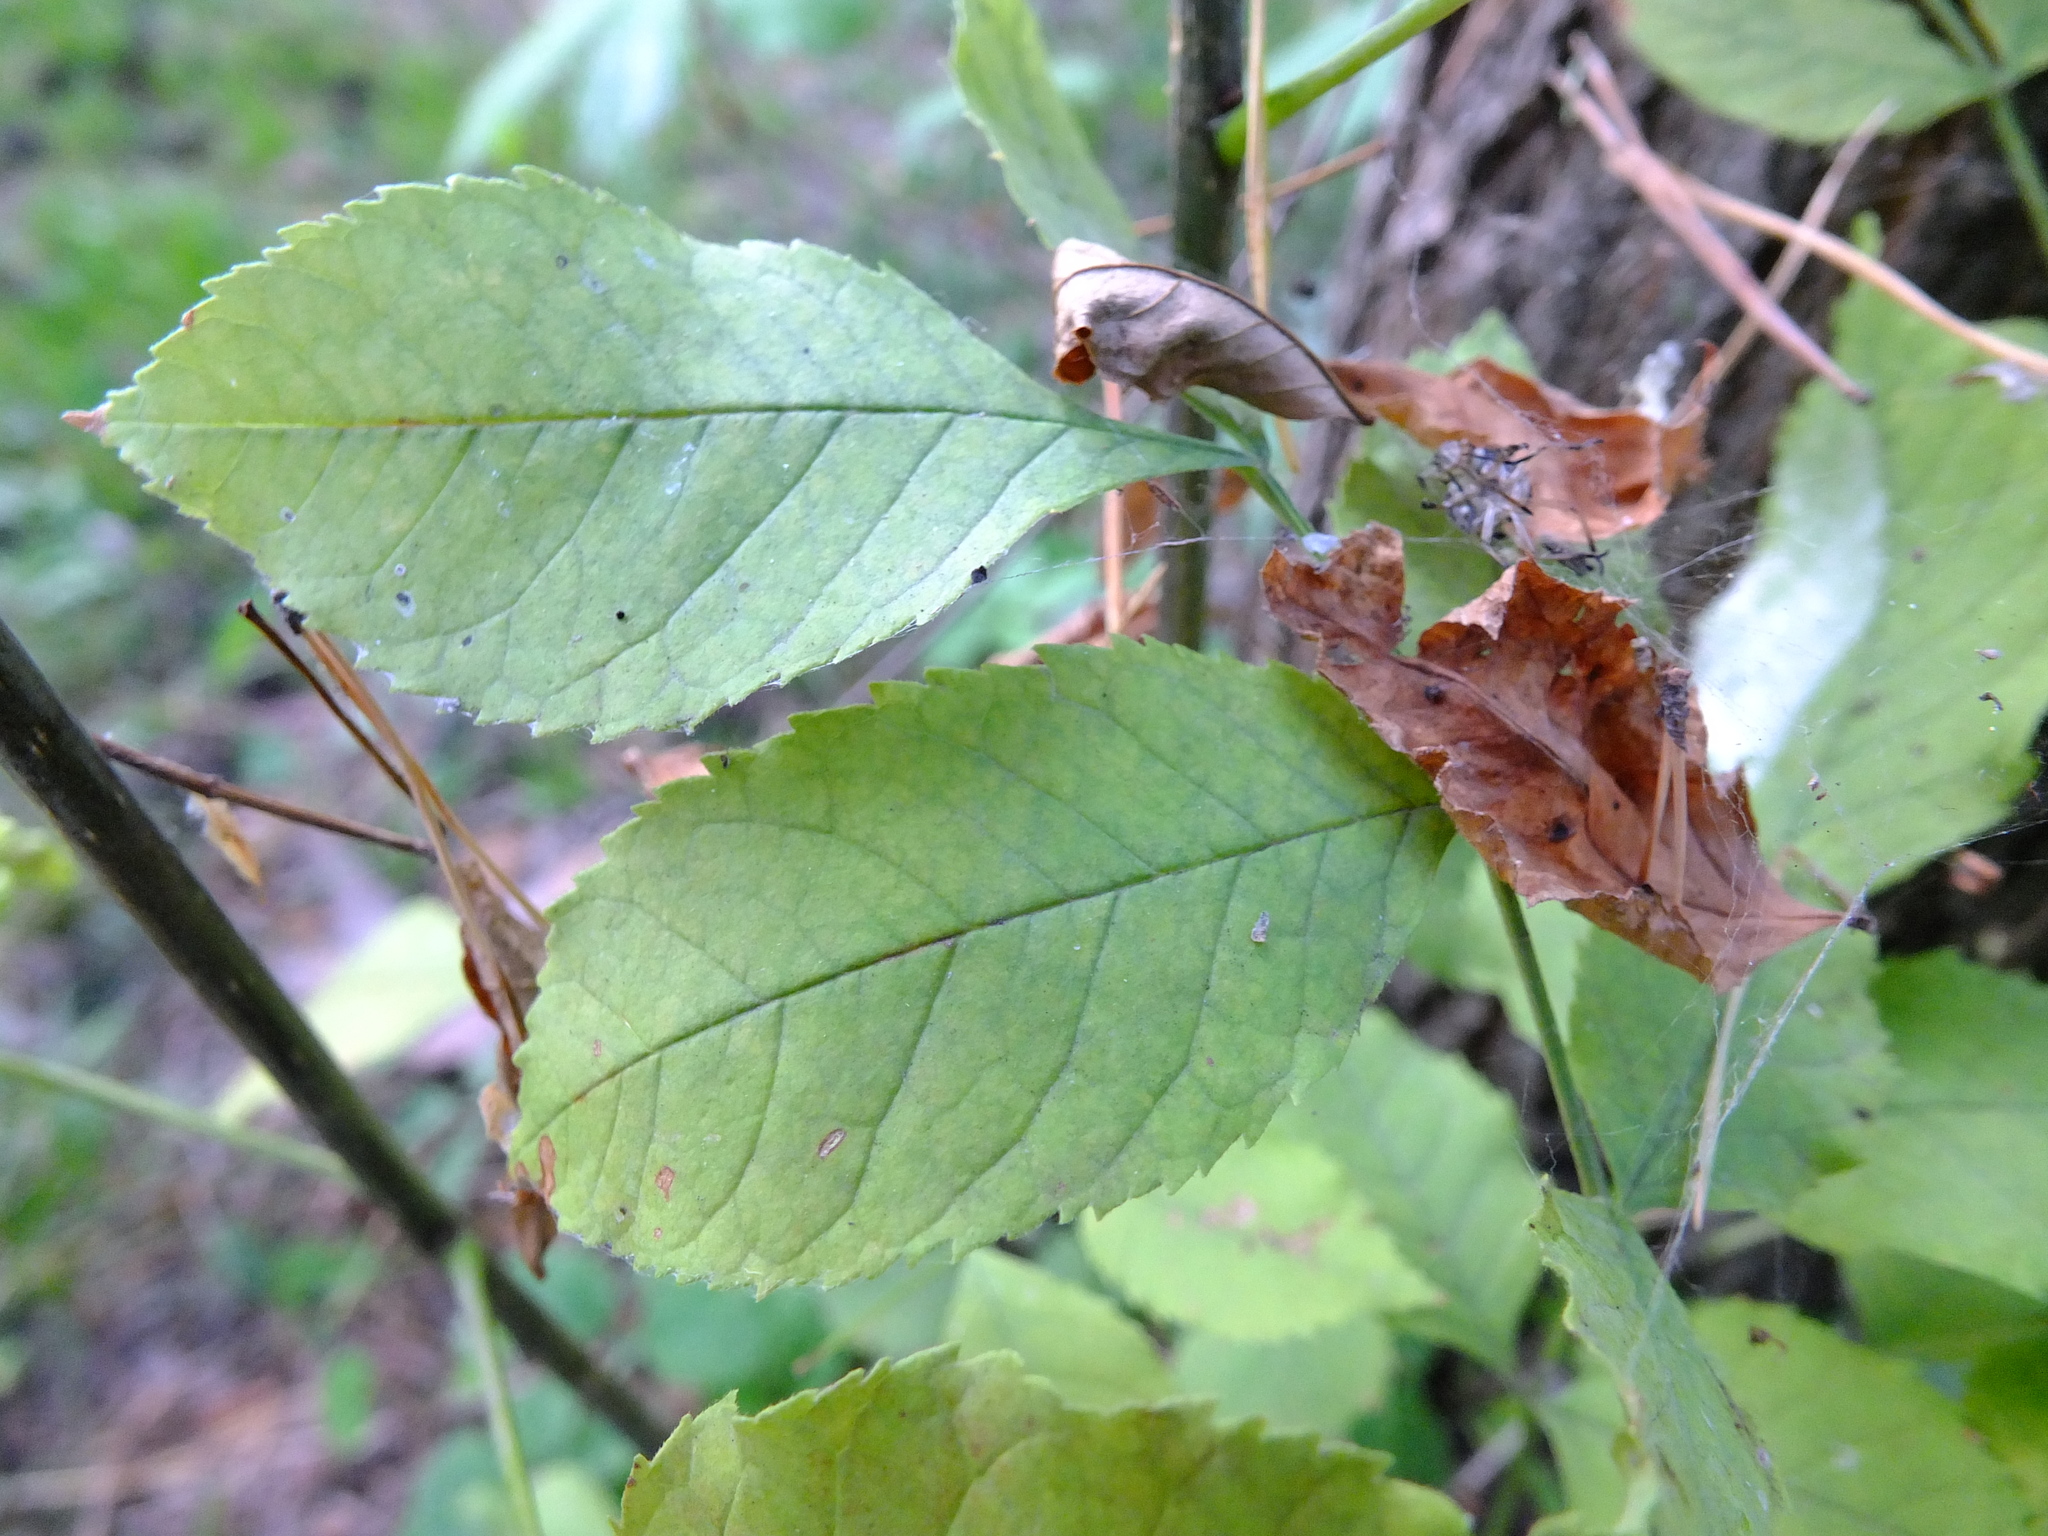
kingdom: Plantae
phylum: Tracheophyta
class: Magnoliopsida
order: Lamiales
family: Oleaceae
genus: Fraxinus
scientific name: Fraxinus pennsylvanica
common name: Green ash
